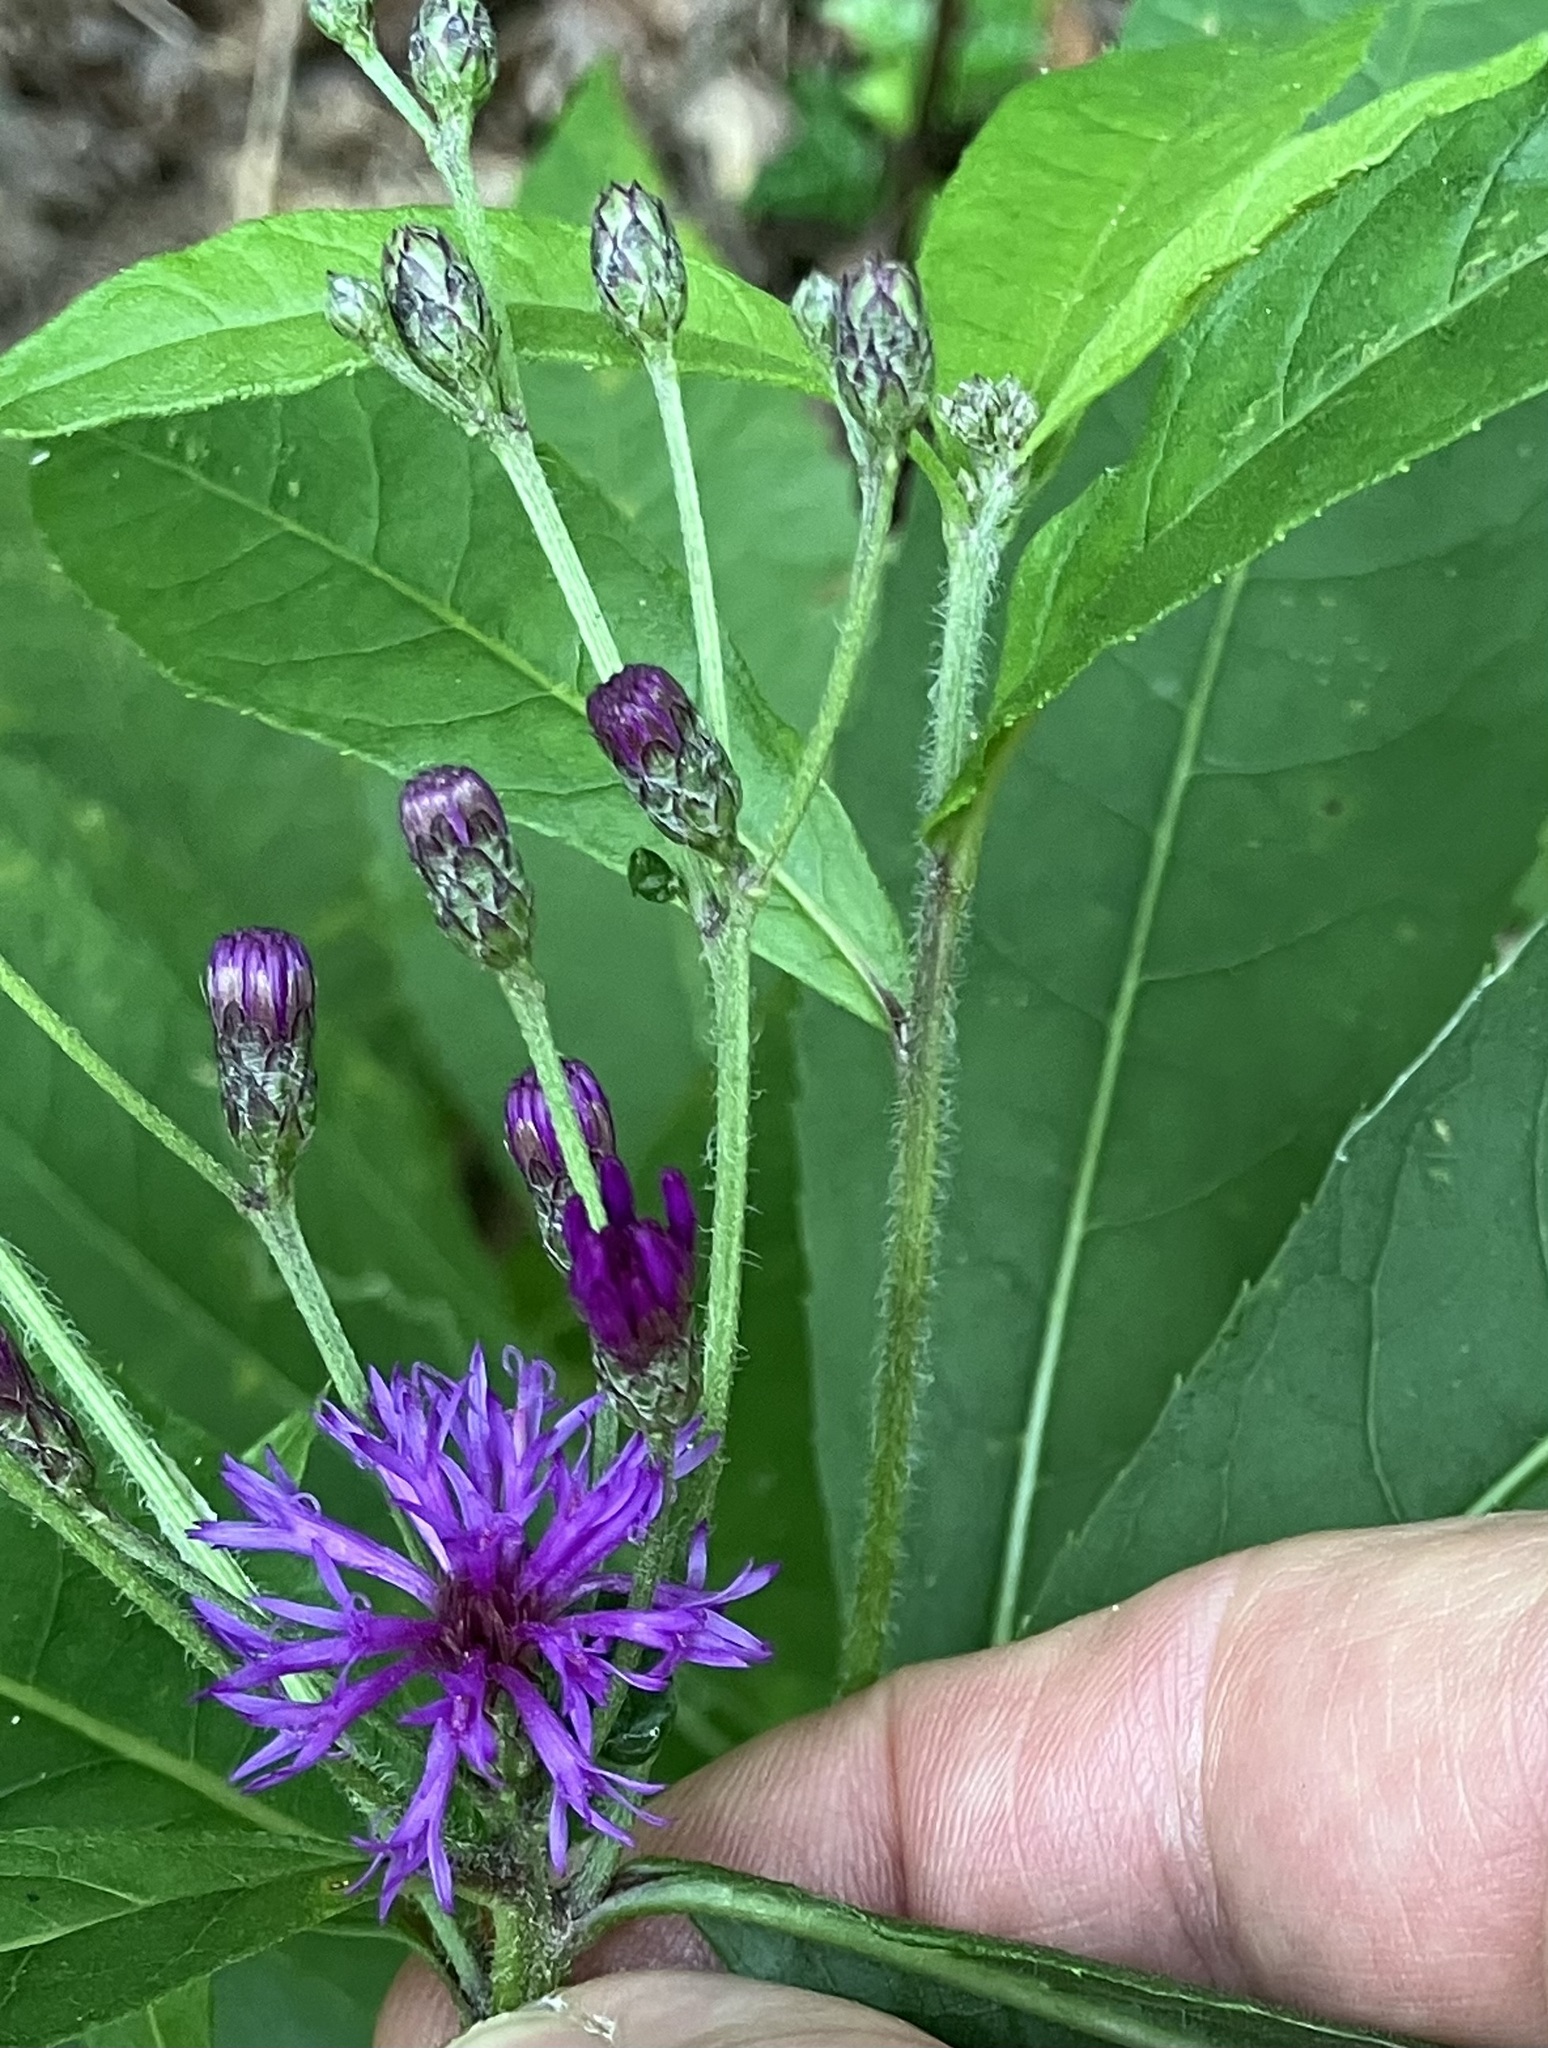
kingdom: Plantae
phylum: Tracheophyta
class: Magnoliopsida
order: Asterales
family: Asteraceae
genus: Vernonia
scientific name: Vernonia gigantea
